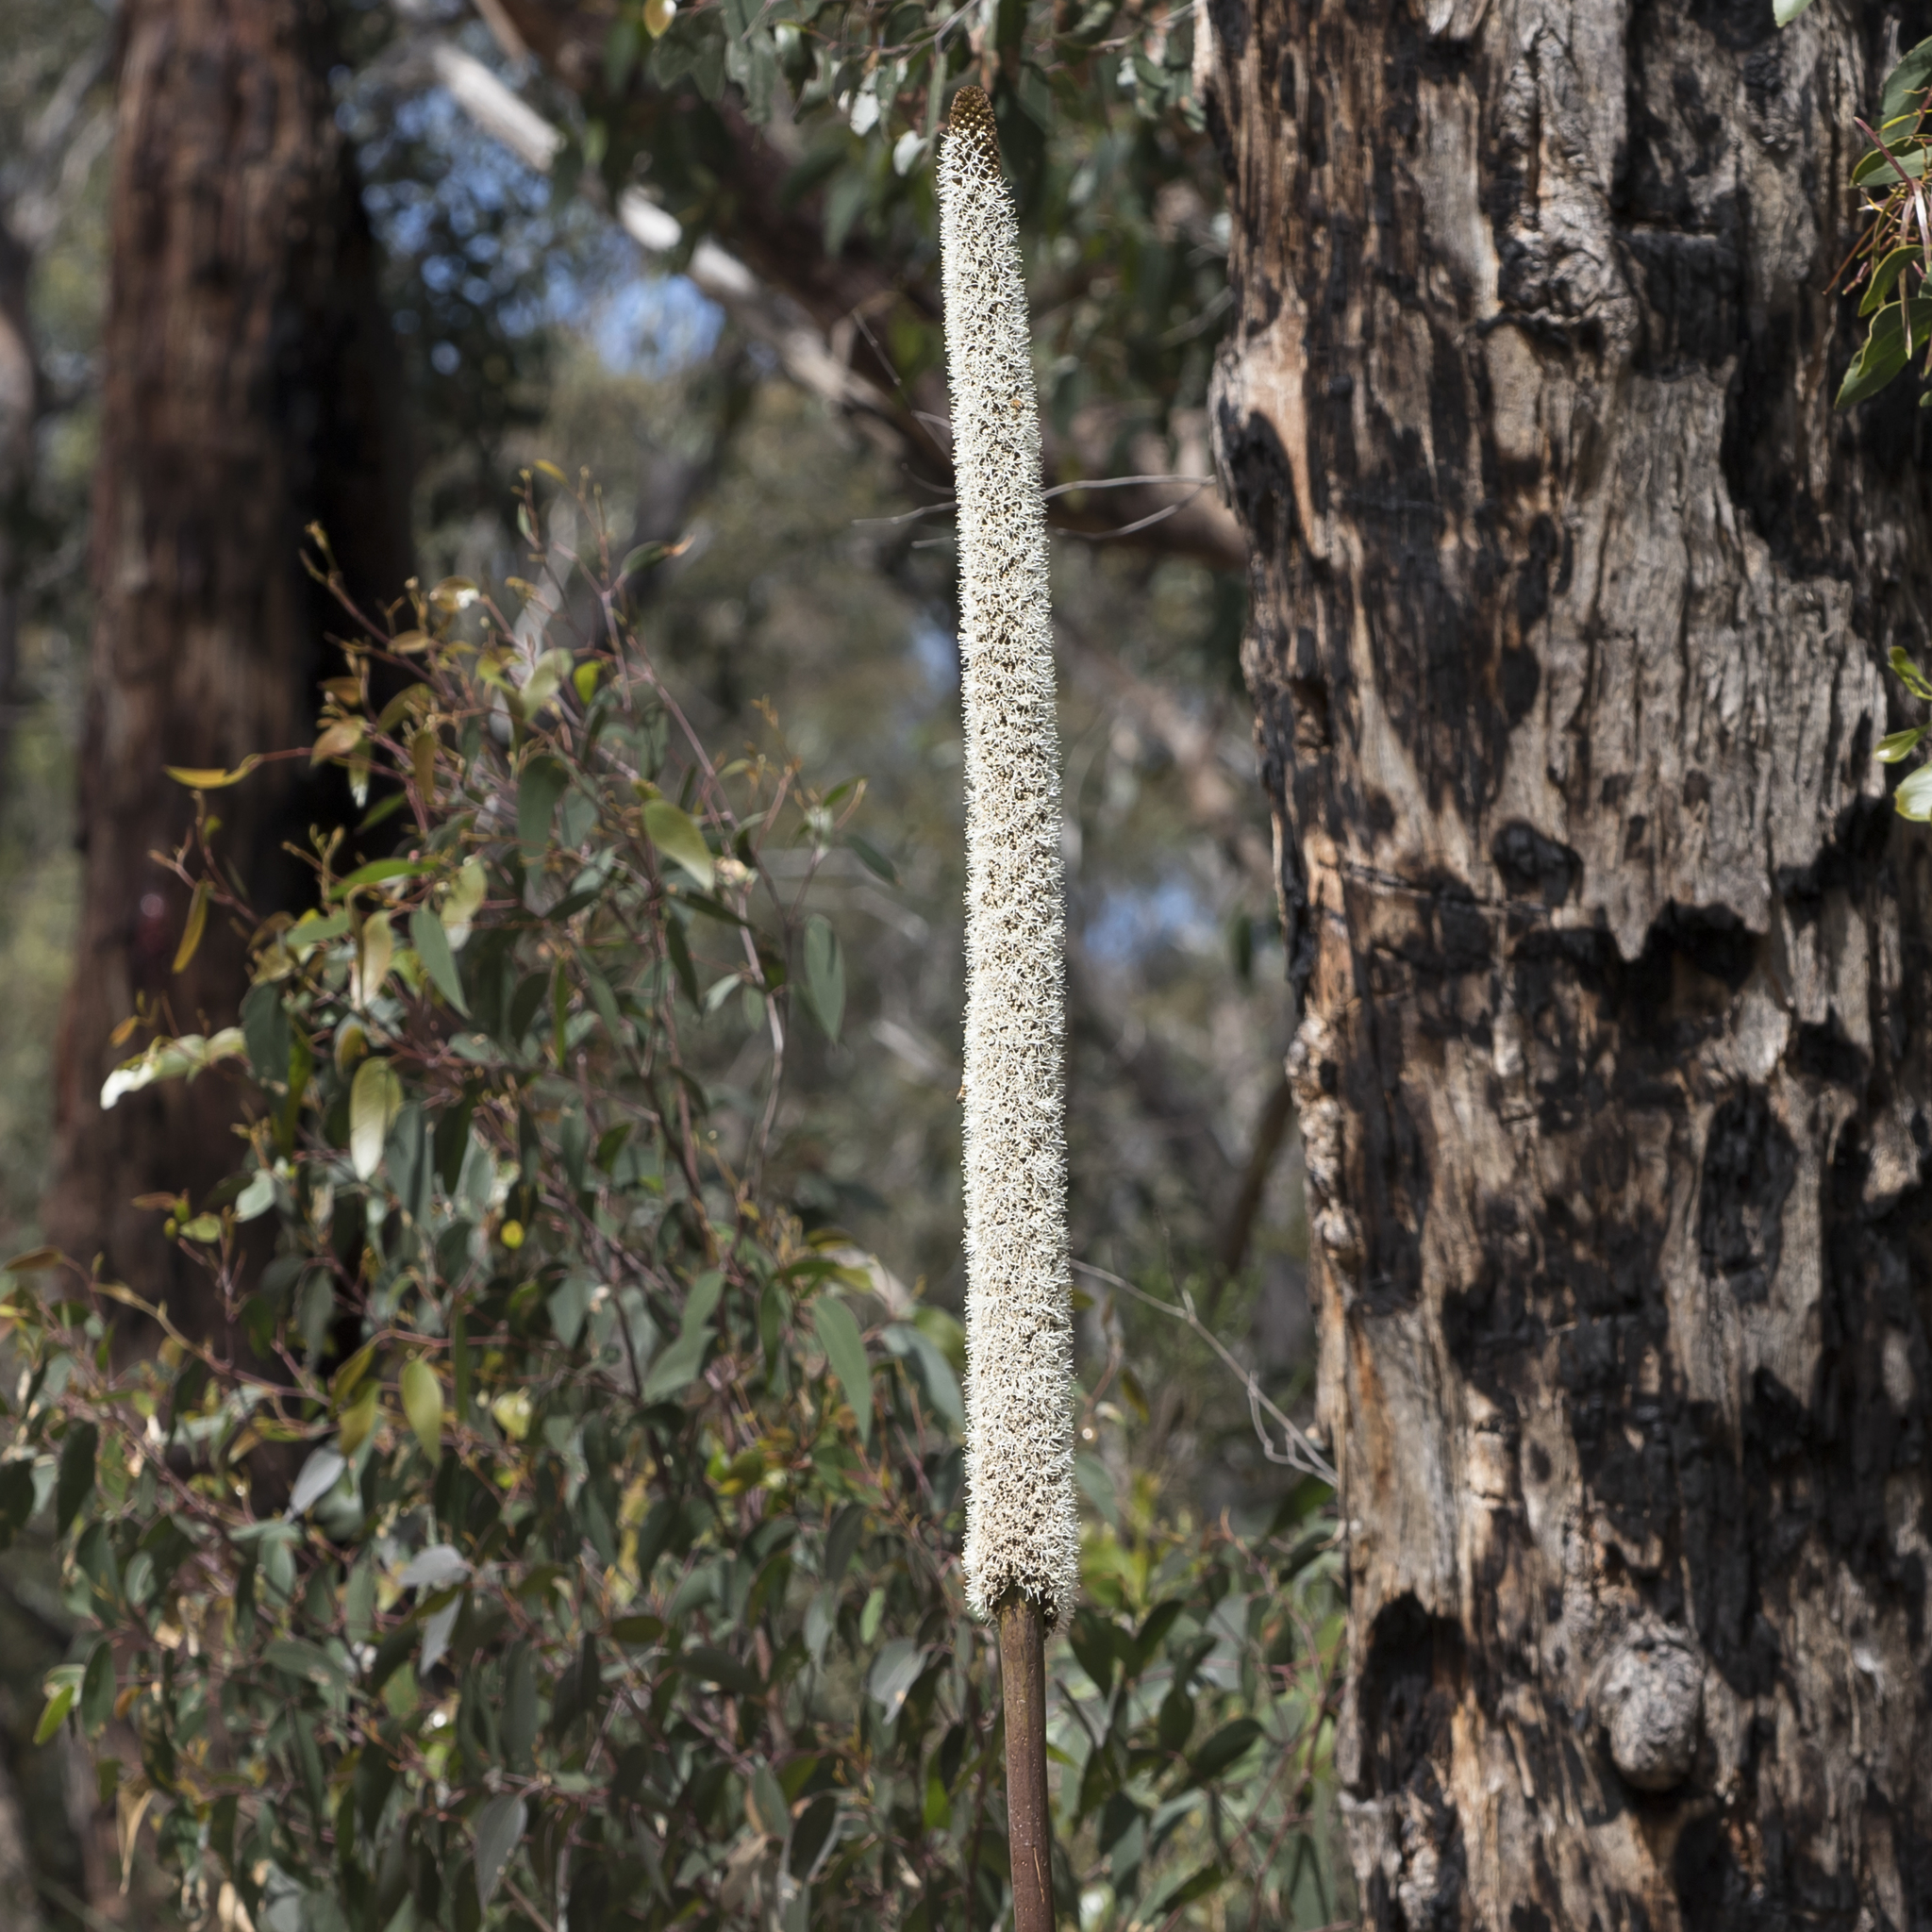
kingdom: Plantae
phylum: Tracheophyta
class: Liliopsida
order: Asparagales
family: Asphodelaceae
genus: Xanthorrhoea
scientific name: Xanthorrhoea semiplana
